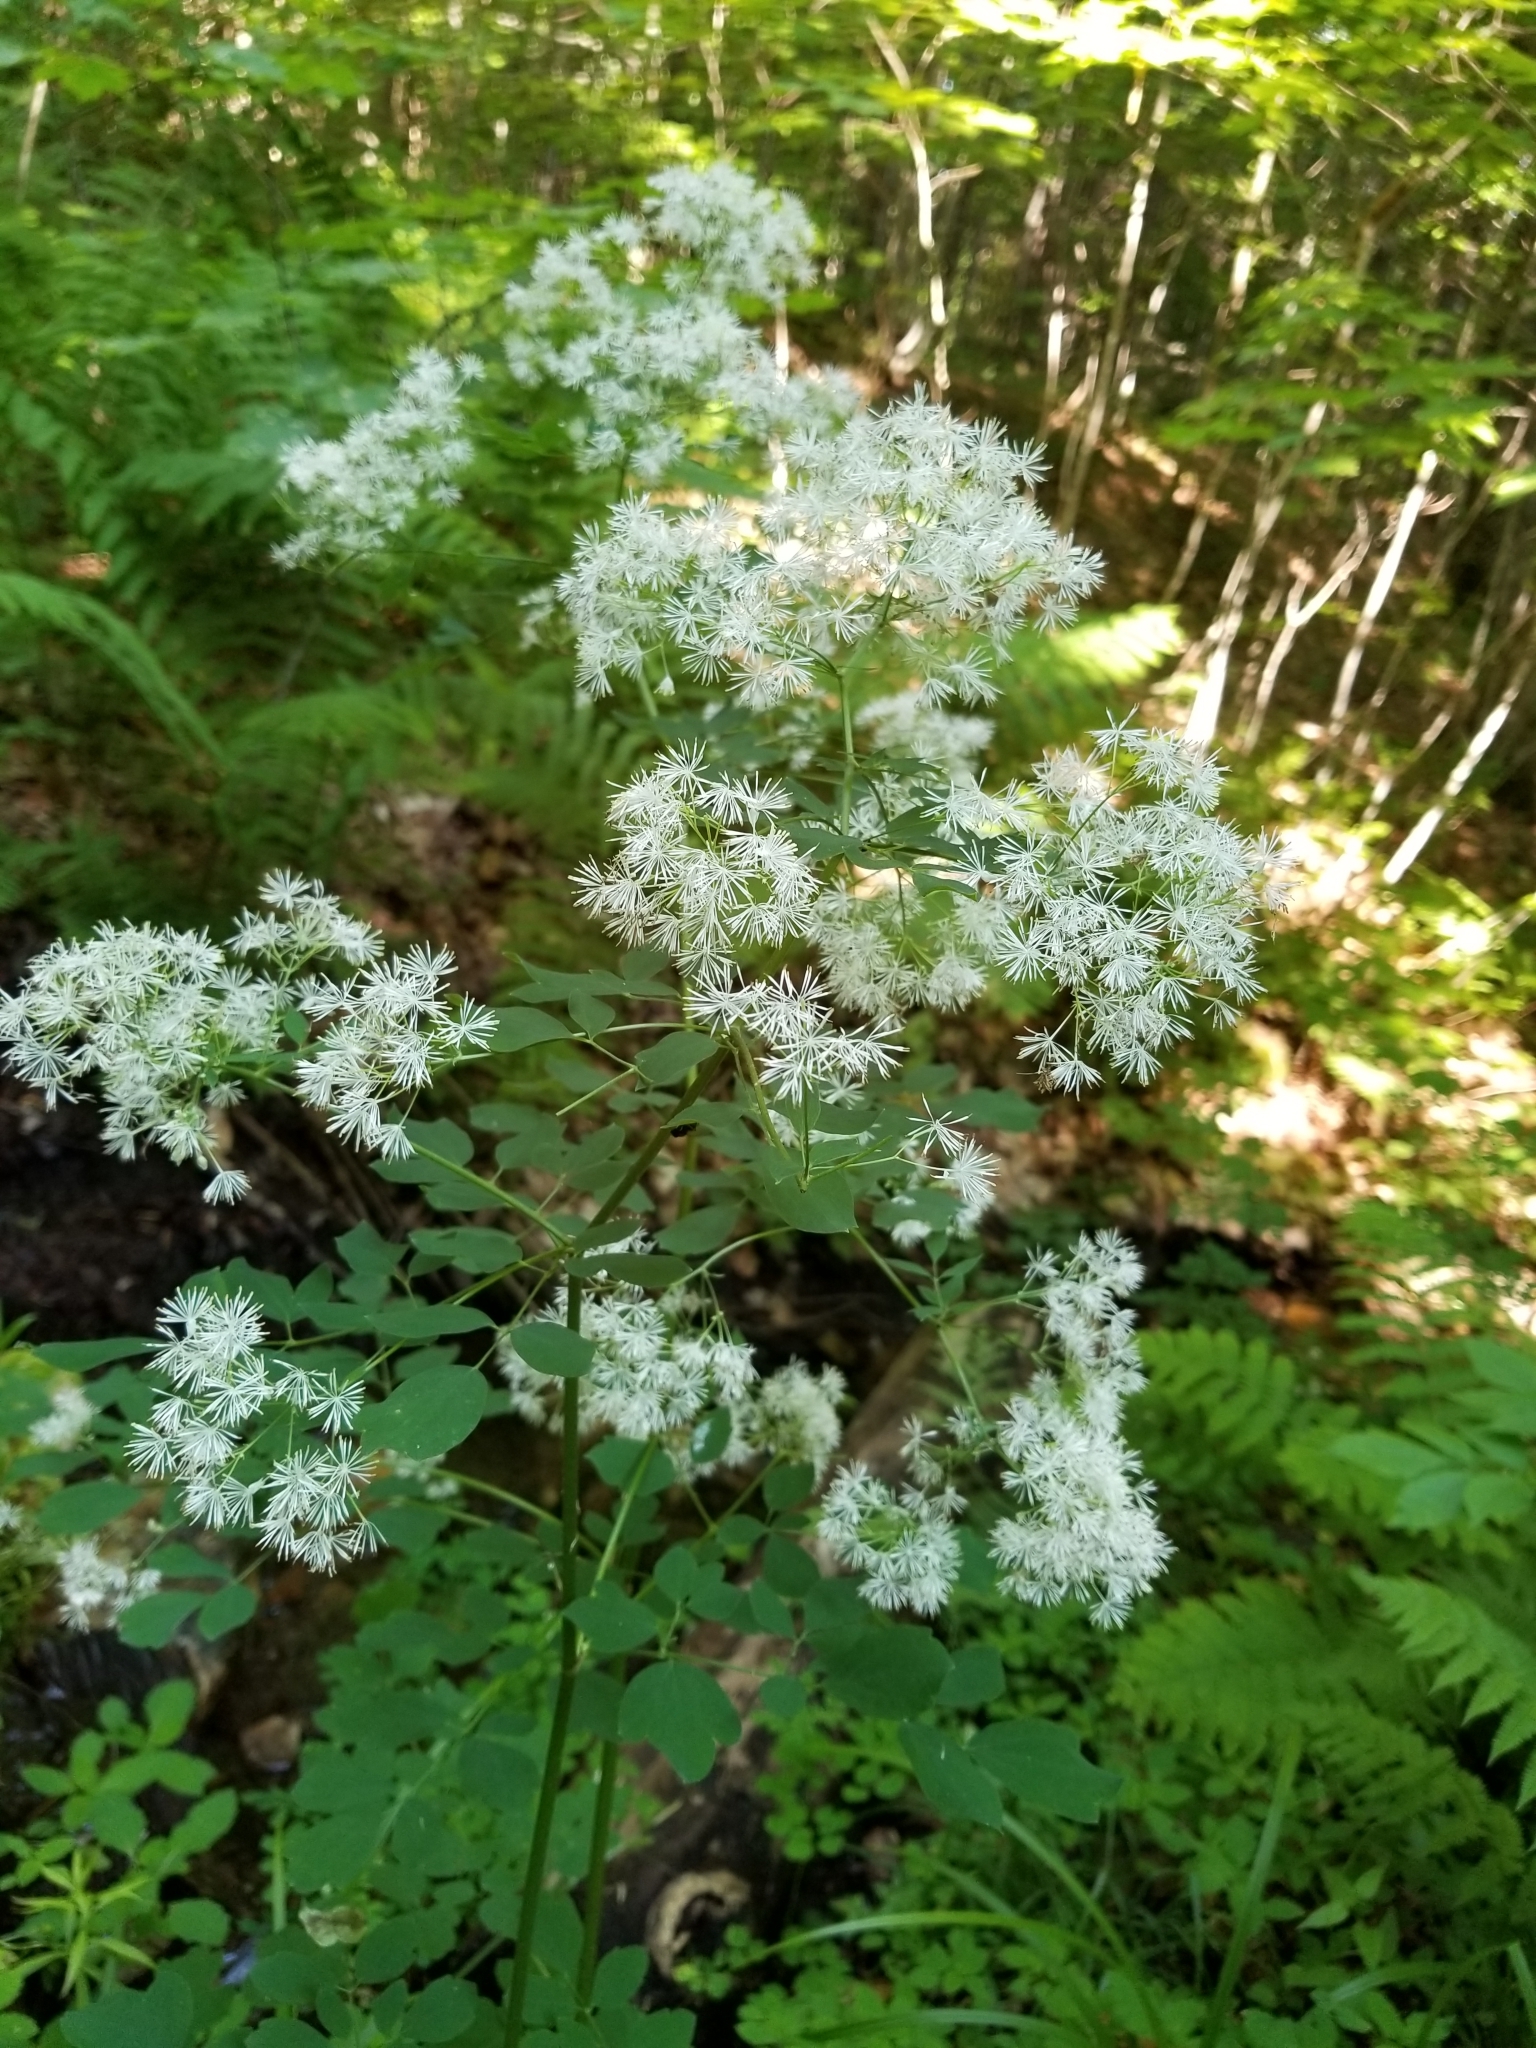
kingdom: Plantae
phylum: Tracheophyta
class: Magnoliopsida
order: Ranunculales
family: Ranunculaceae
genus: Thalictrum
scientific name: Thalictrum pubescens
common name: King-of-the-meadow
